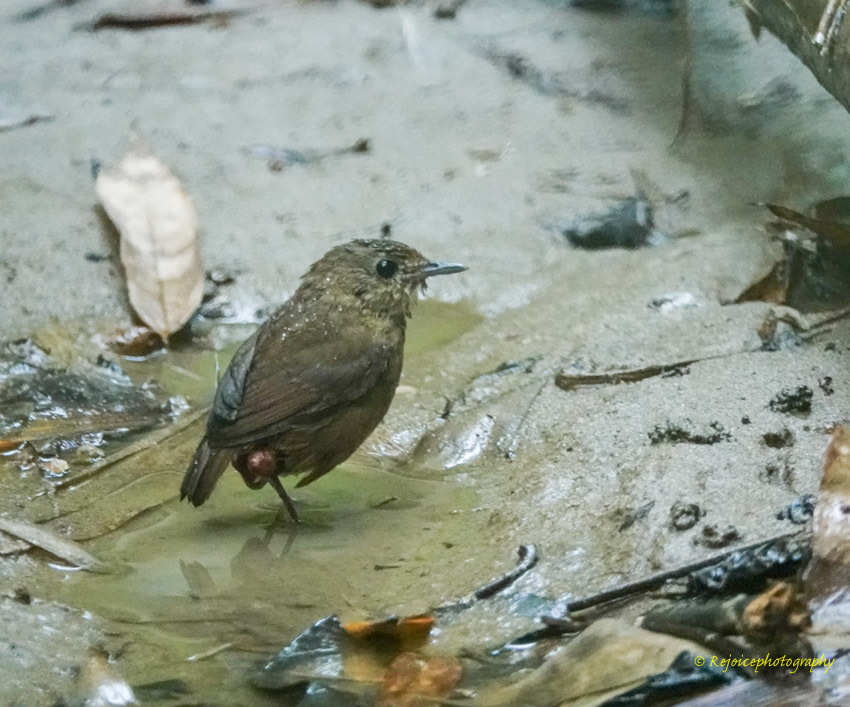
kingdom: Animalia
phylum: Chordata
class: Aves
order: Passeriformes
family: Muscicapidae
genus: Brachypteryx
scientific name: Brachypteryx leucophris
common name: Lesser shortwing
